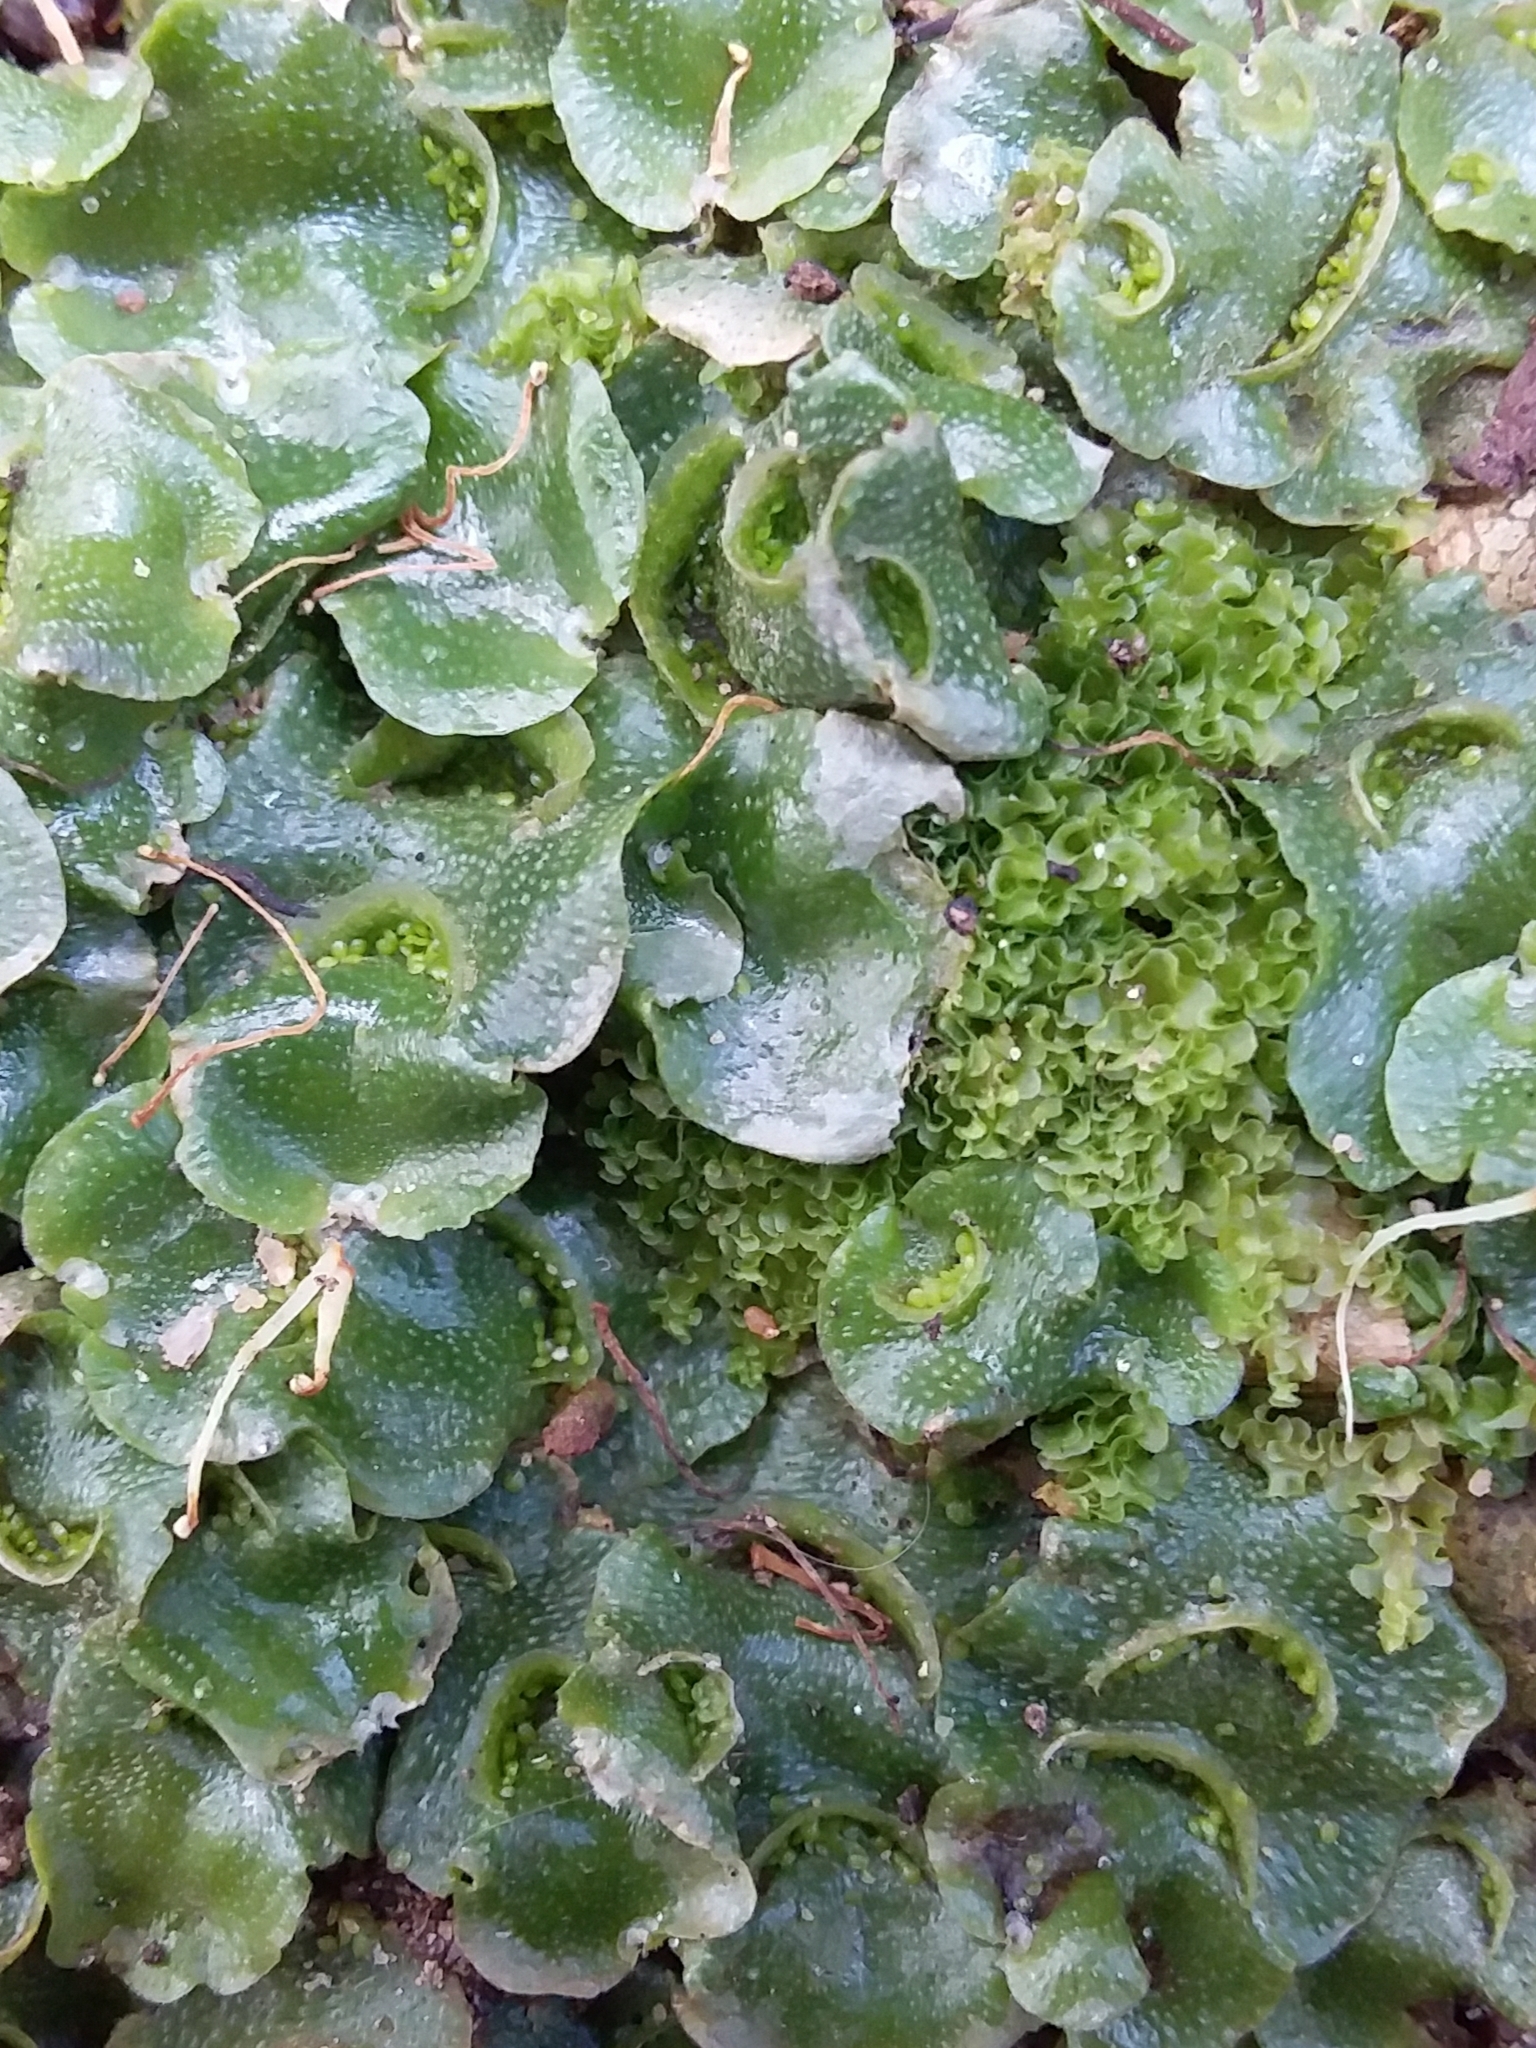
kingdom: Plantae
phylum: Marchantiophyta
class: Marchantiopsida
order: Lunulariales
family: Lunulariaceae
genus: Lunularia
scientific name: Lunularia cruciata
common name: Crescent-cup liverwort
